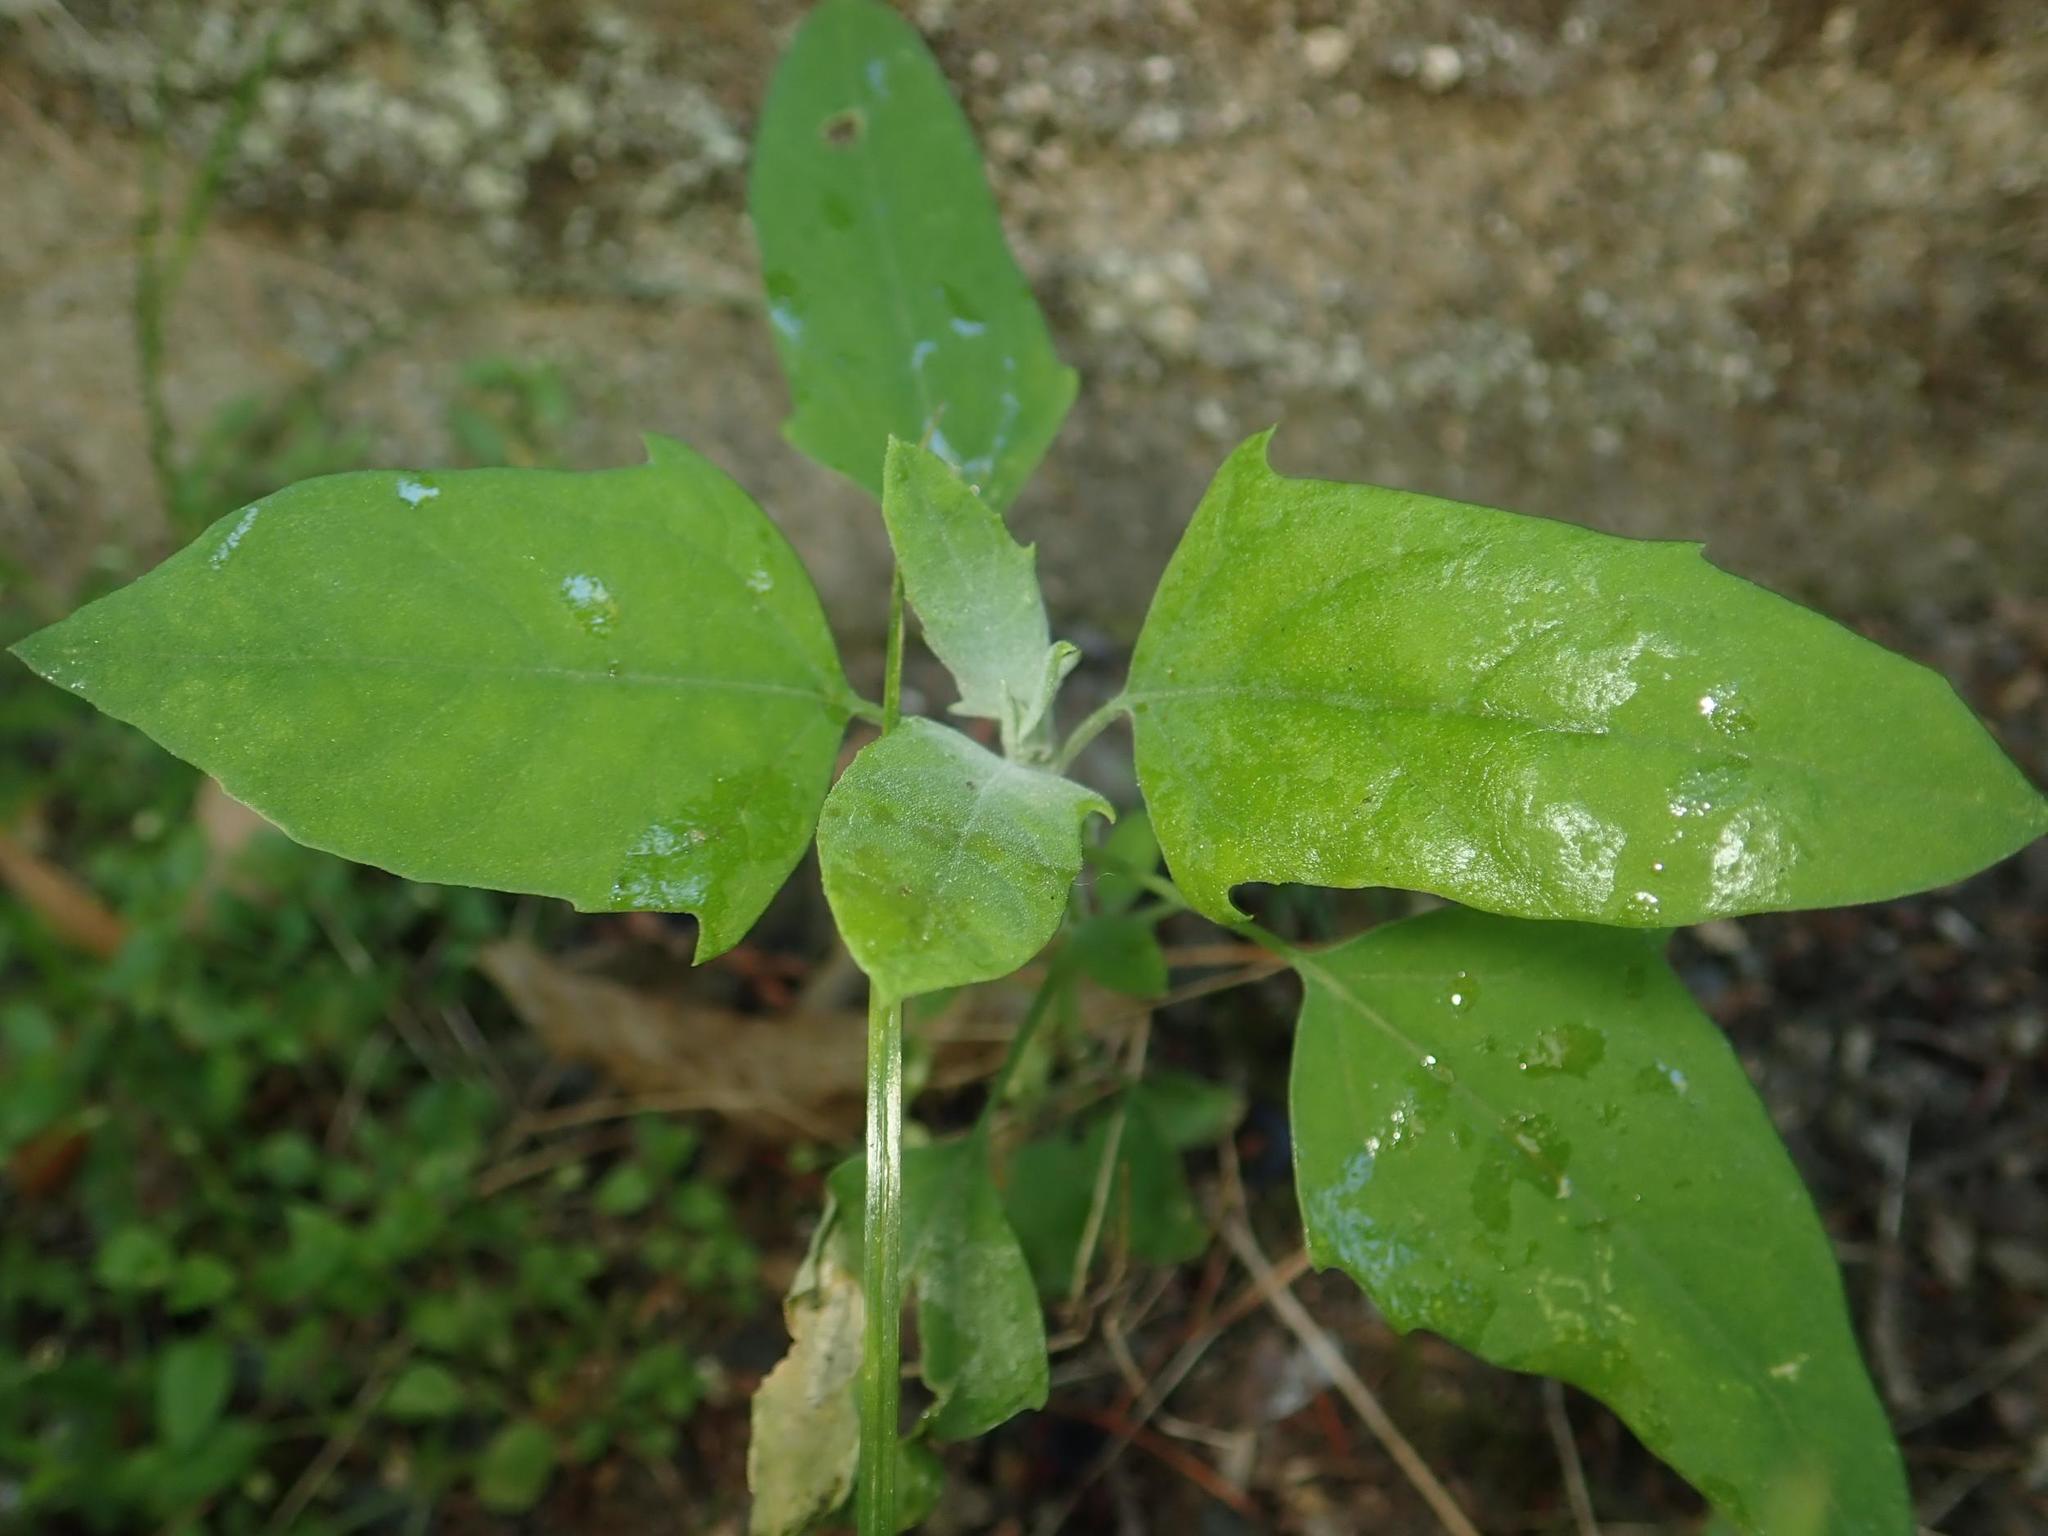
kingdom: Plantae
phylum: Tracheophyta
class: Magnoliopsida
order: Caryophyllales
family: Amaranthaceae
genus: Chenopodium
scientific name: Chenopodium album
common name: Fat-hen
